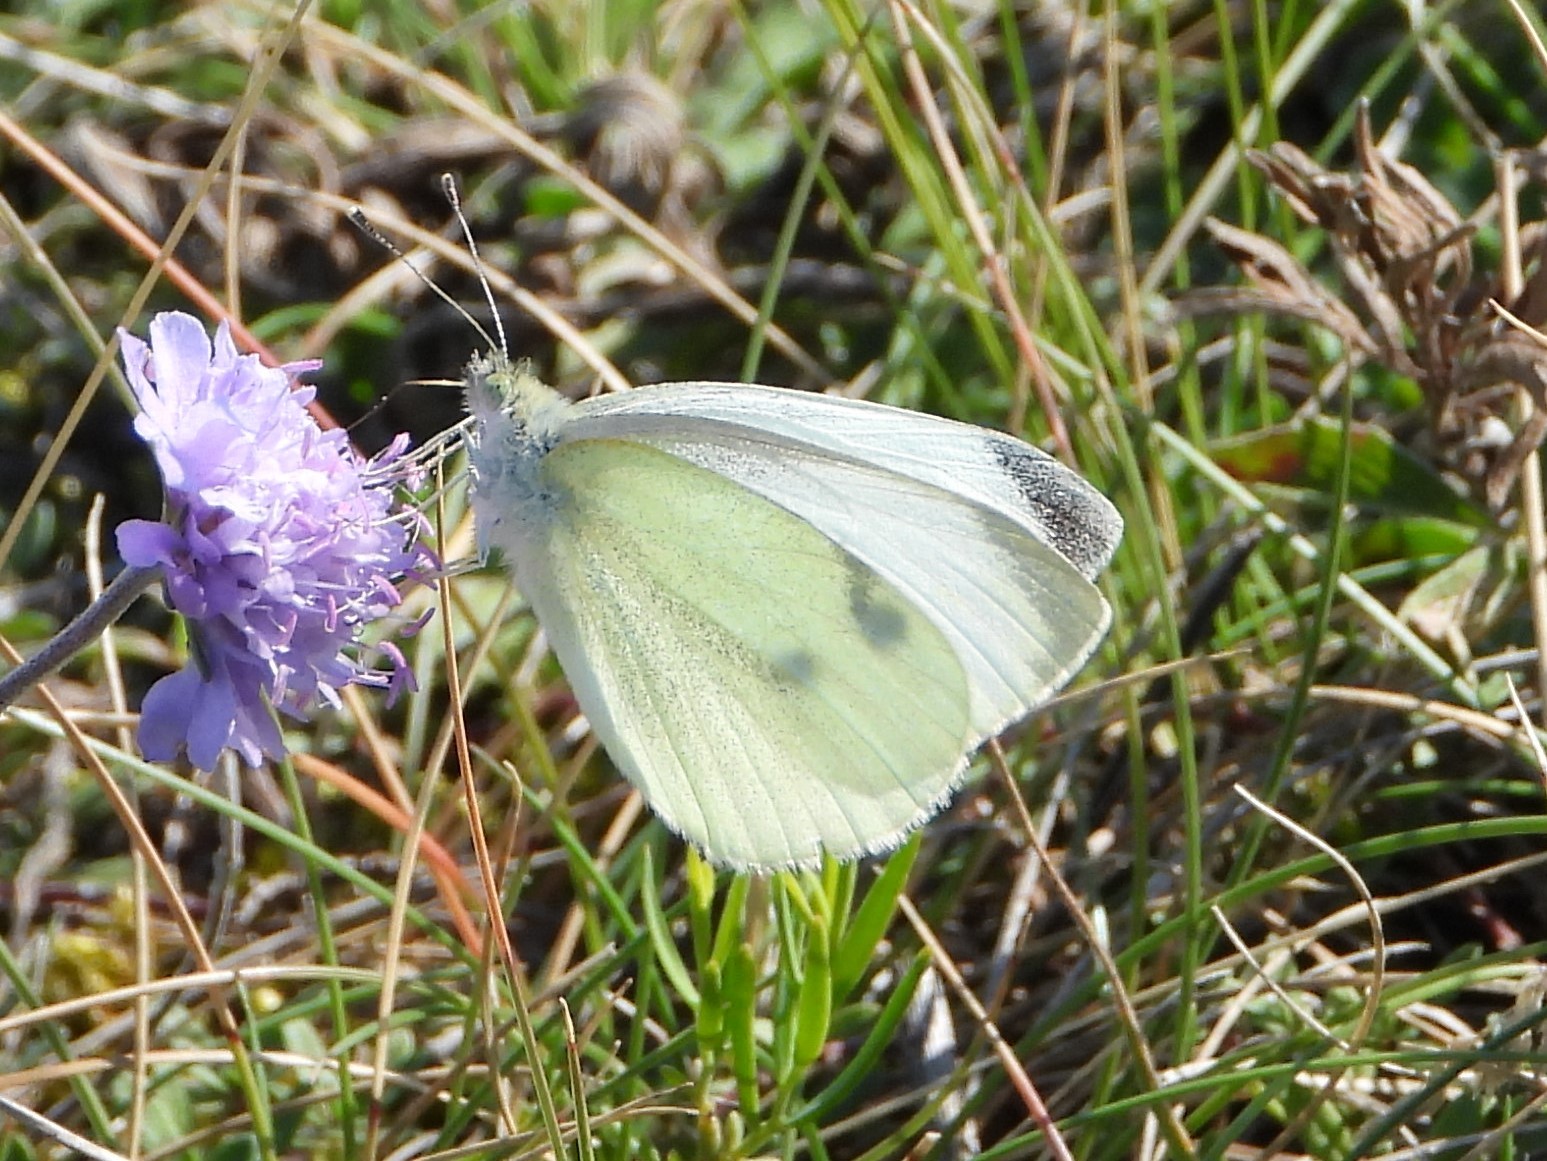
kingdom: Animalia
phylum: Arthropoda
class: Insecta
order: Lepidoptera
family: Pieridae
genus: Pieris
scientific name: Pieris rapae
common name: Small white
